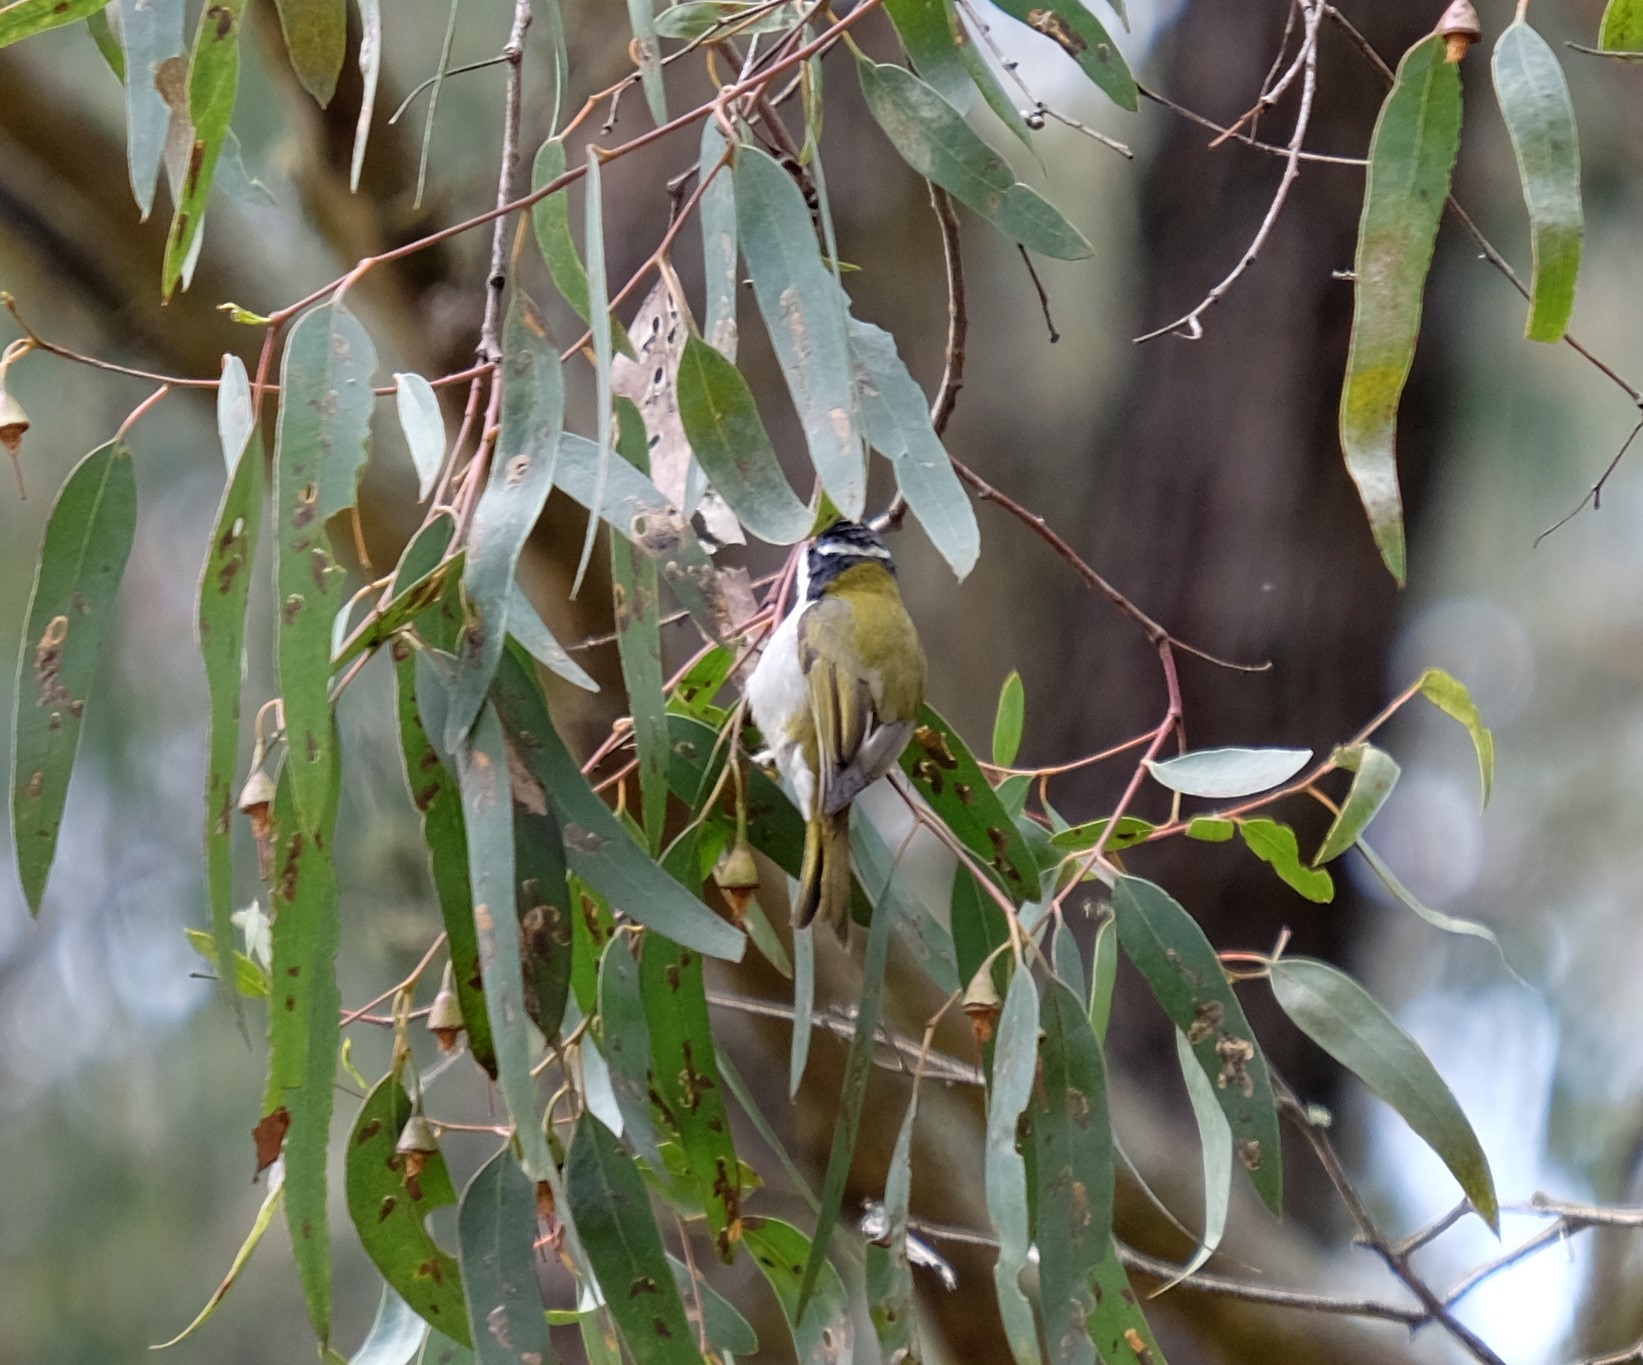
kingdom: Animalia
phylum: Chordata
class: Aves
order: Passeriformes
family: Meliphagidae
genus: Melithreptus
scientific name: Melithreptus lunatus
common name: White-naped honeyeater
